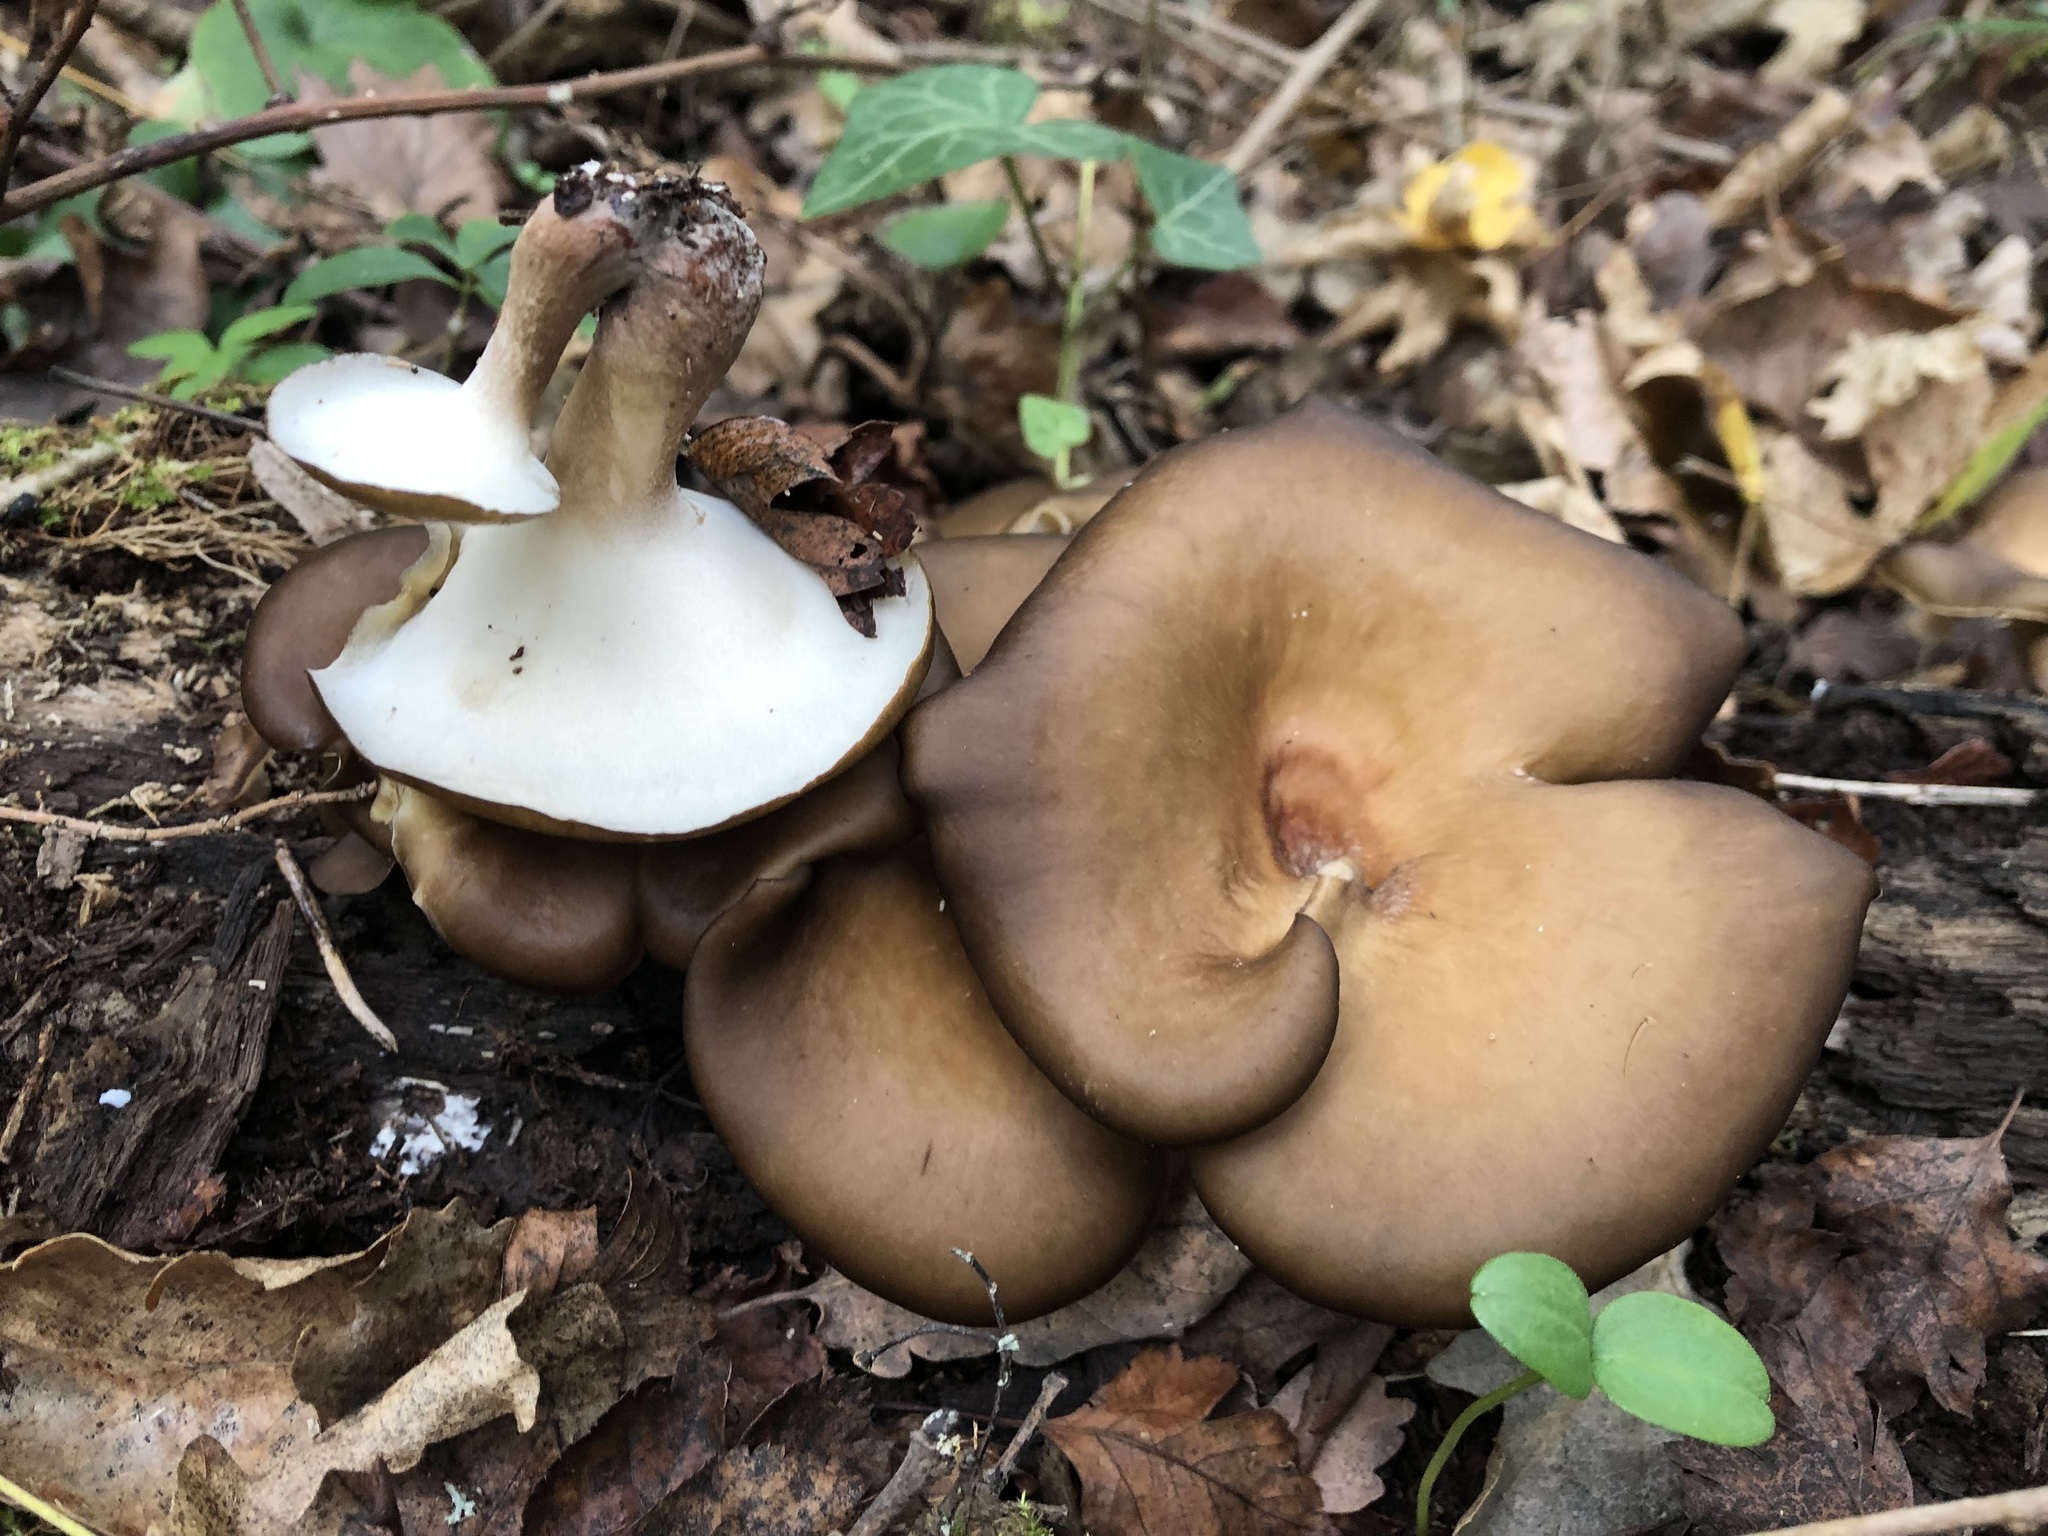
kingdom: Fungi
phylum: Basidiomycota
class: Agaricomycetes
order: Polyporales
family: Polyporaceae
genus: Picipes
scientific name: Picipes badius
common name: Bay polypore
